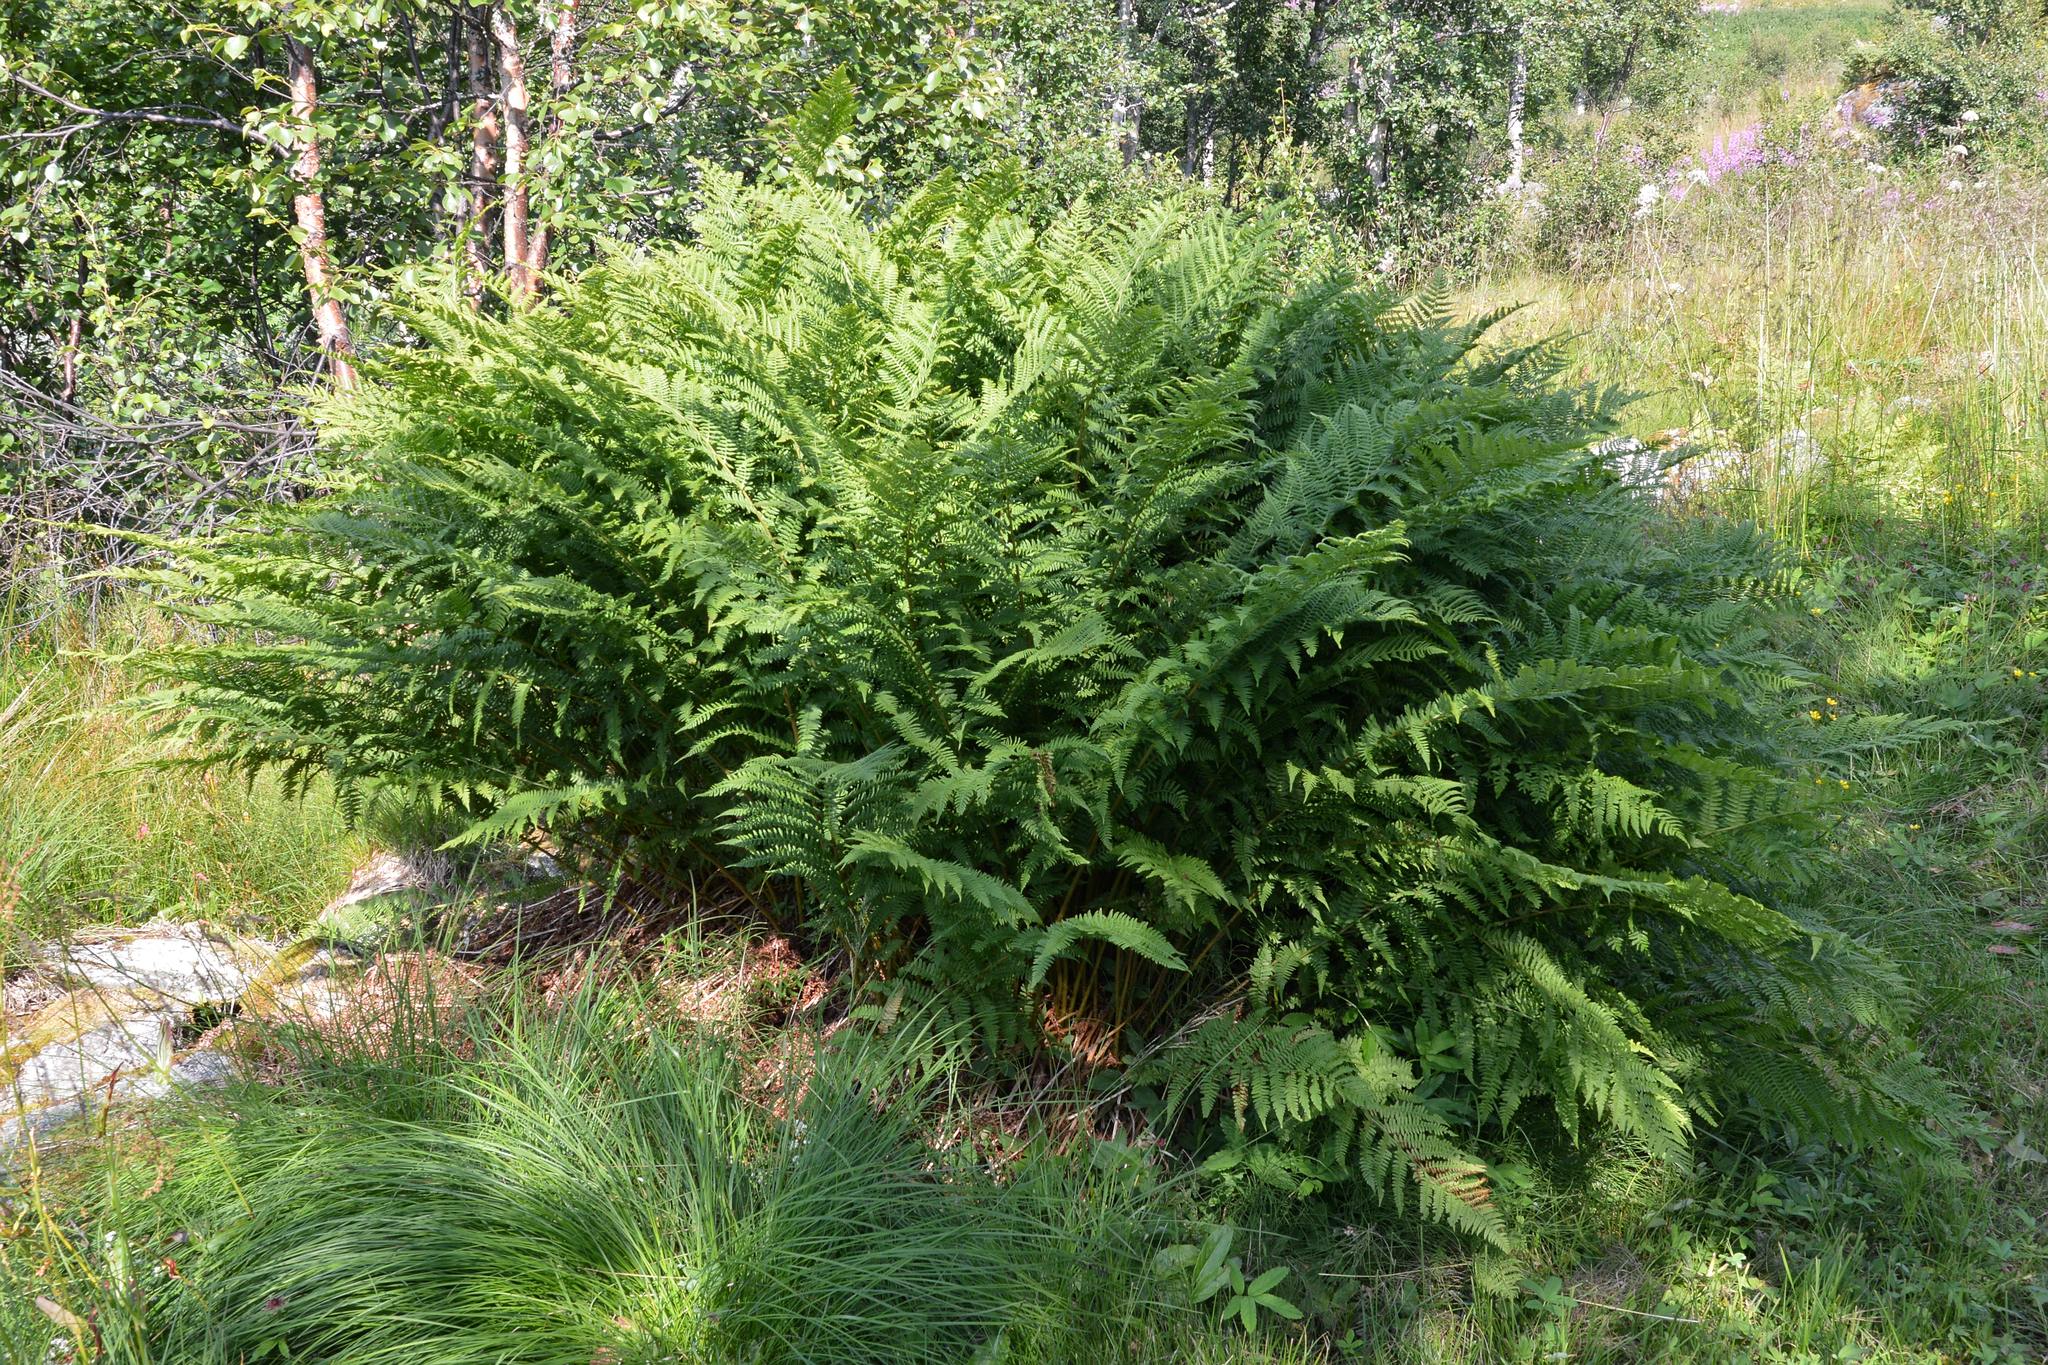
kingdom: Plantae
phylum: Tracheophyta
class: Polypodiopsida
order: Polypodiales
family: Athyriaceae
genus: Athyrium
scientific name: Athyrium filix-femina
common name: Lady fern
